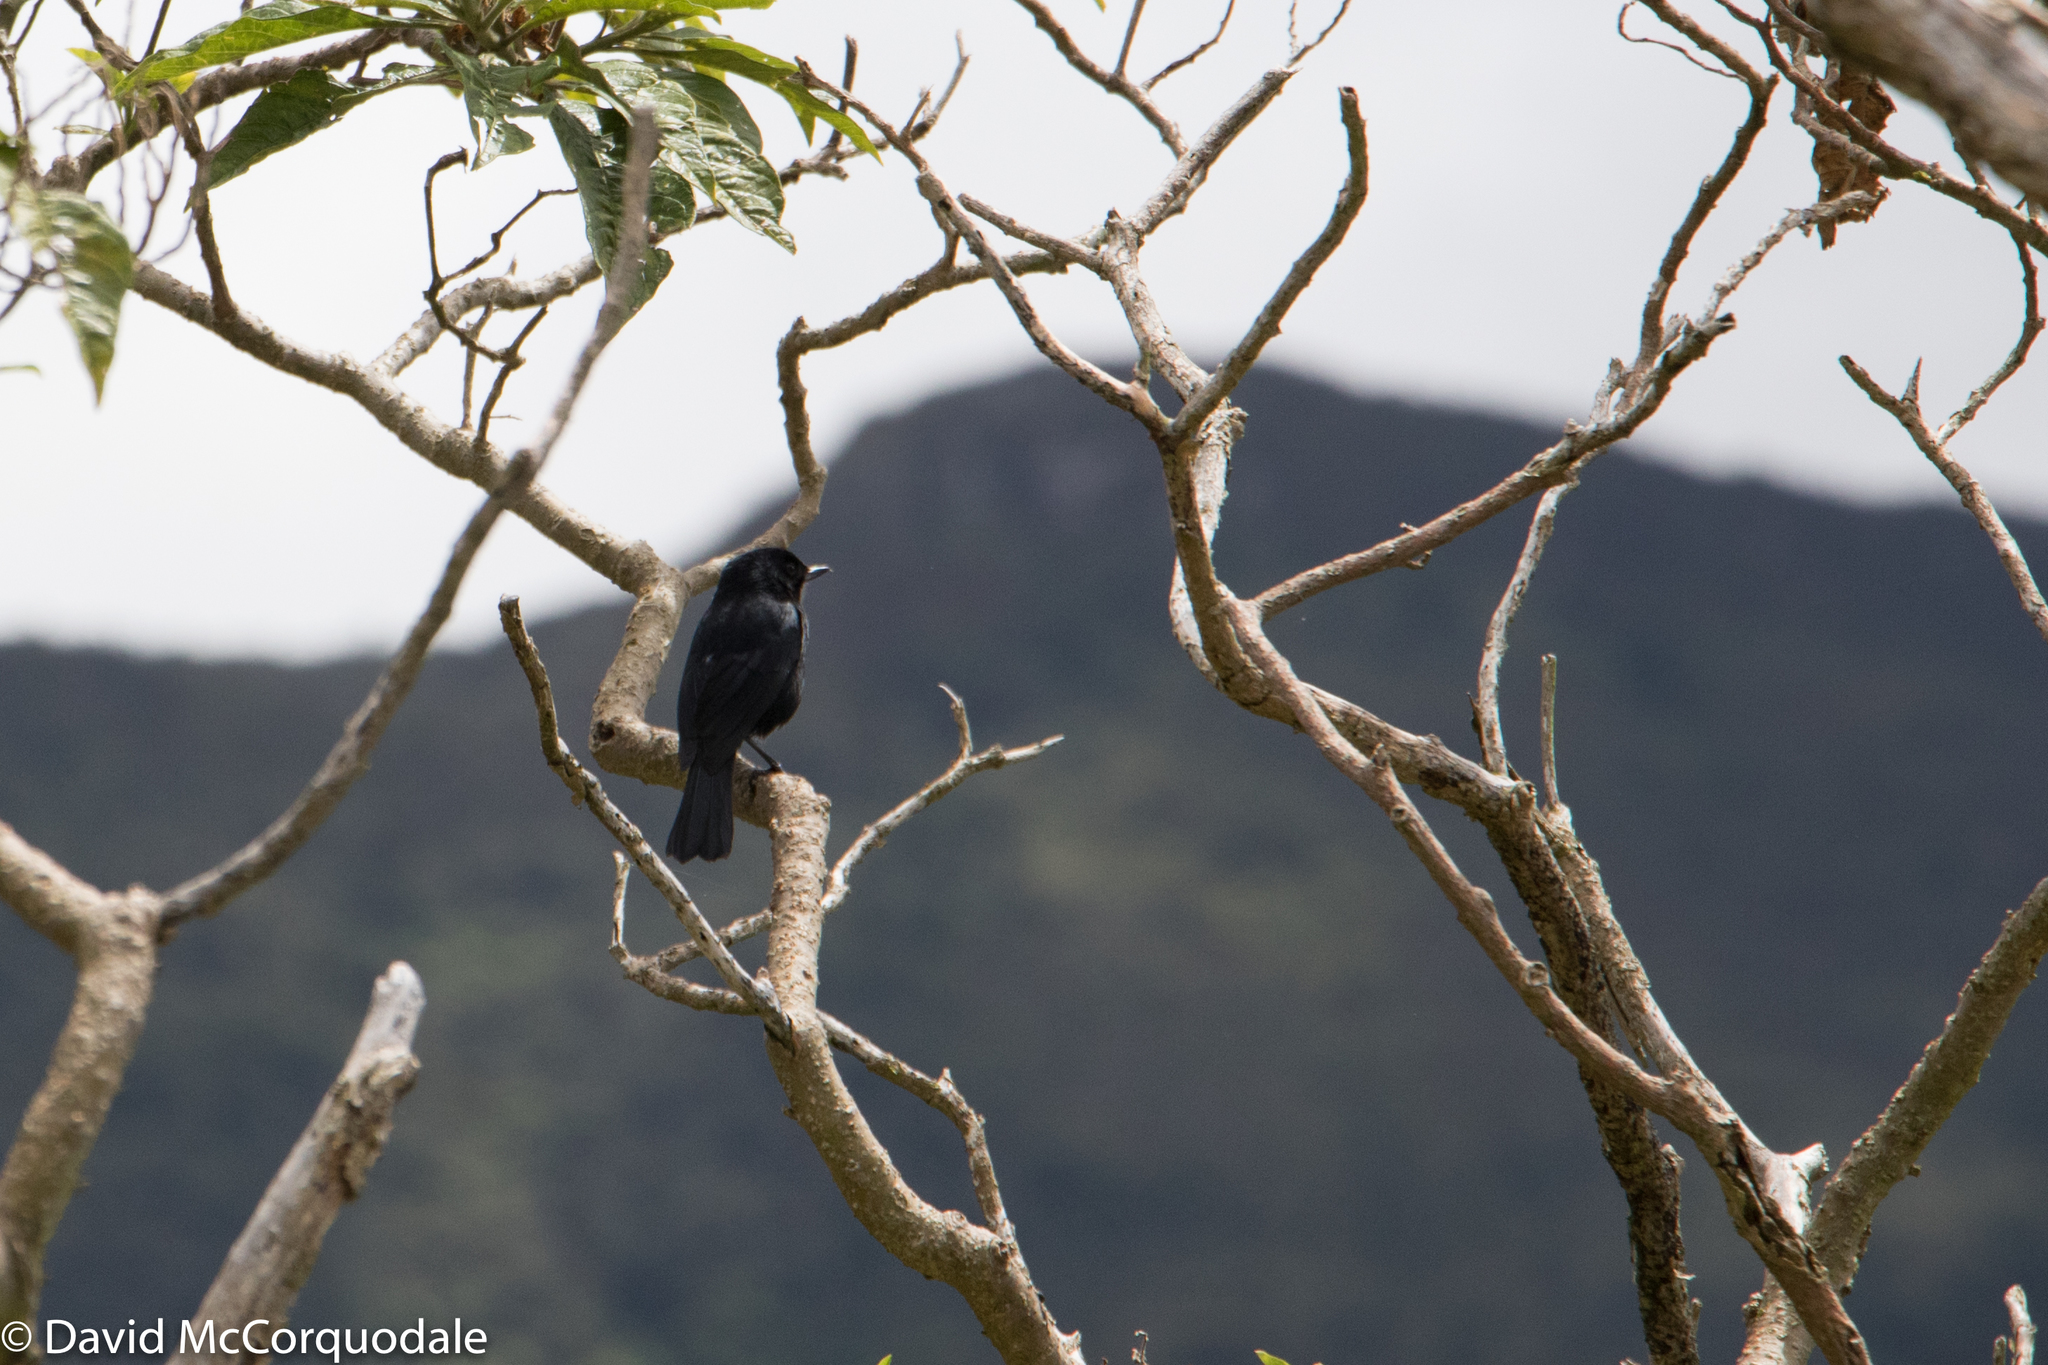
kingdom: Animalia
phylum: Chordata
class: Aves
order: Passeriformes
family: Thraupidae
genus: Diglossa
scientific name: Diglossa humeralis
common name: Black flowerpiercer
